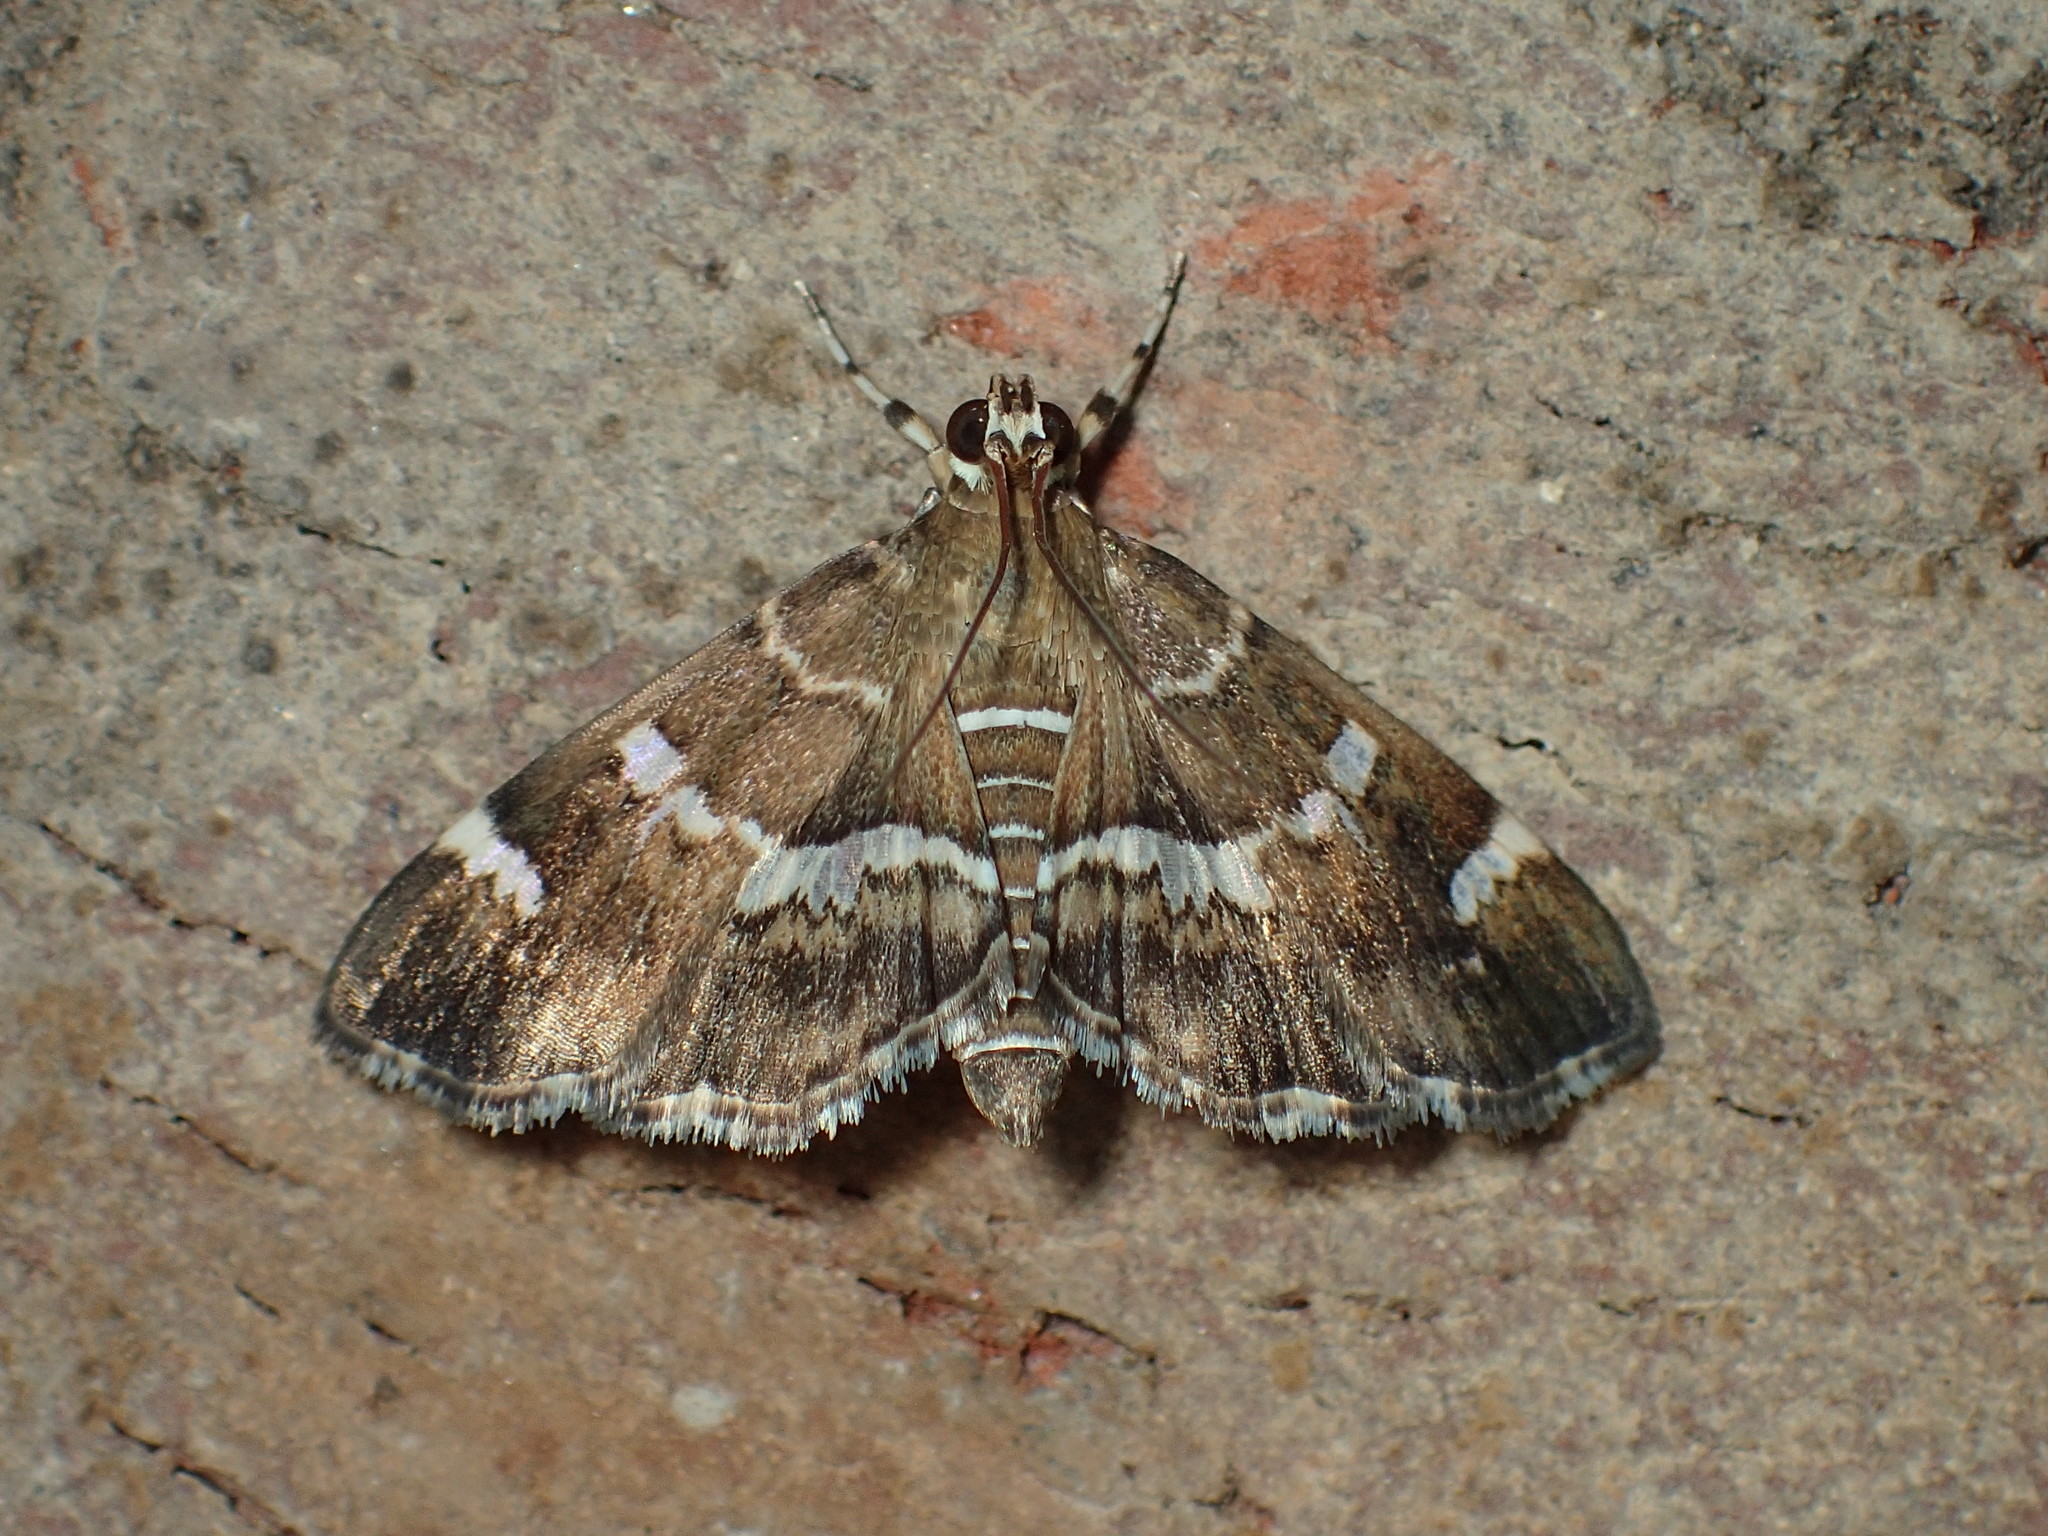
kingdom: Animalia
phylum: Arthropoda
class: Insecta
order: Lepidoptera
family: Crambidae
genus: Hymenia
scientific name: Hymenia perspectalis
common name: Spotted beet webworm
